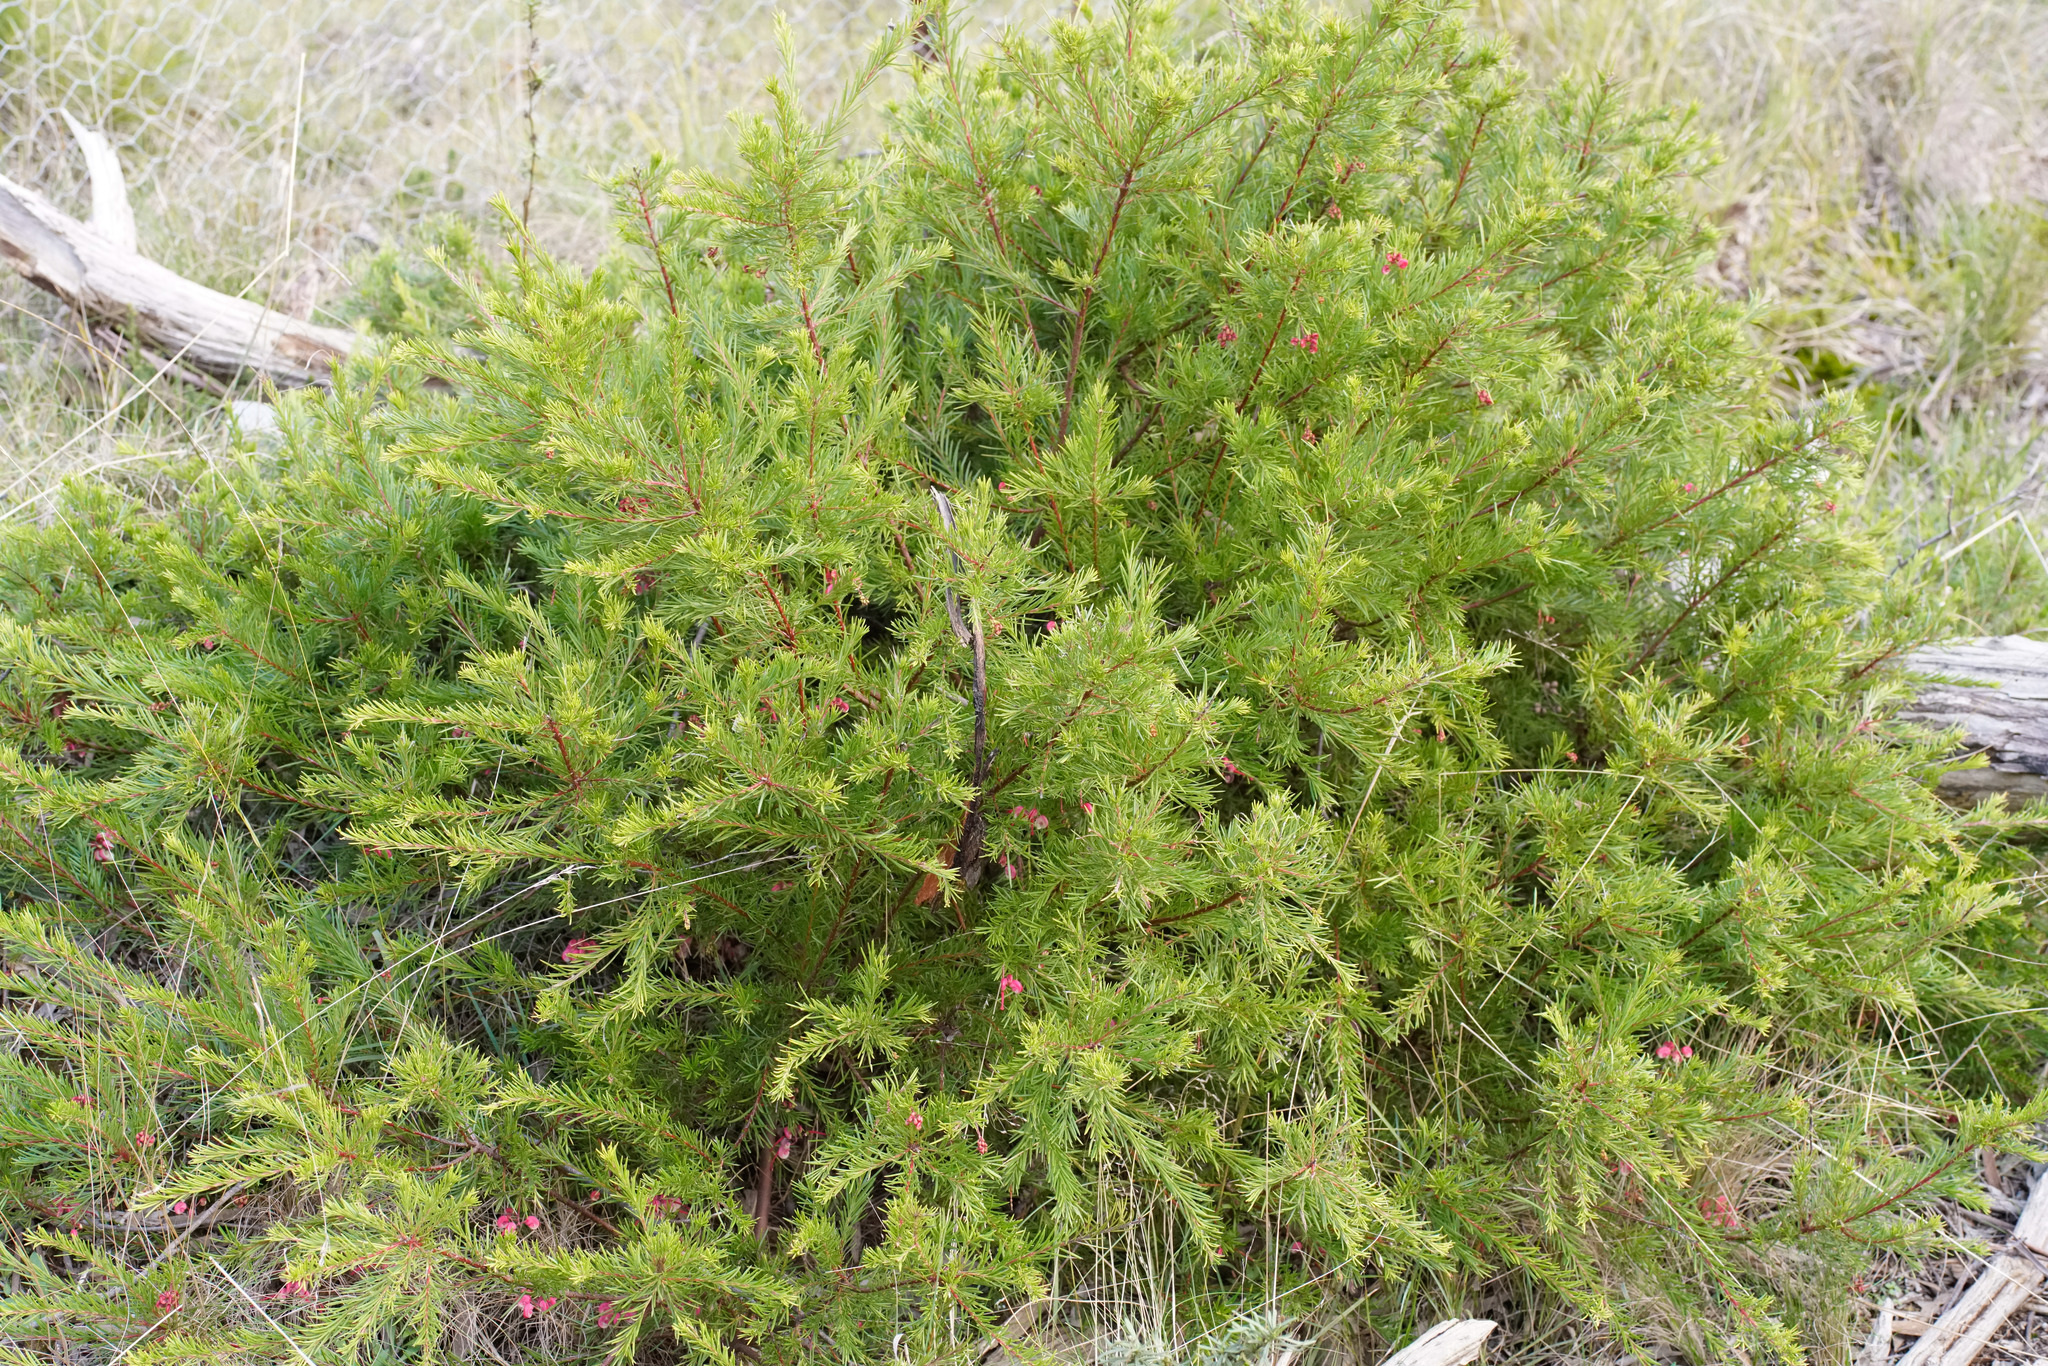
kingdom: Plantae
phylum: Tracheophyta
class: Magnoliopsida
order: Proteales
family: Proteaceae
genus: Grevillea
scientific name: Grevillea rosmarinifolia
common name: Rosemary grevillea
